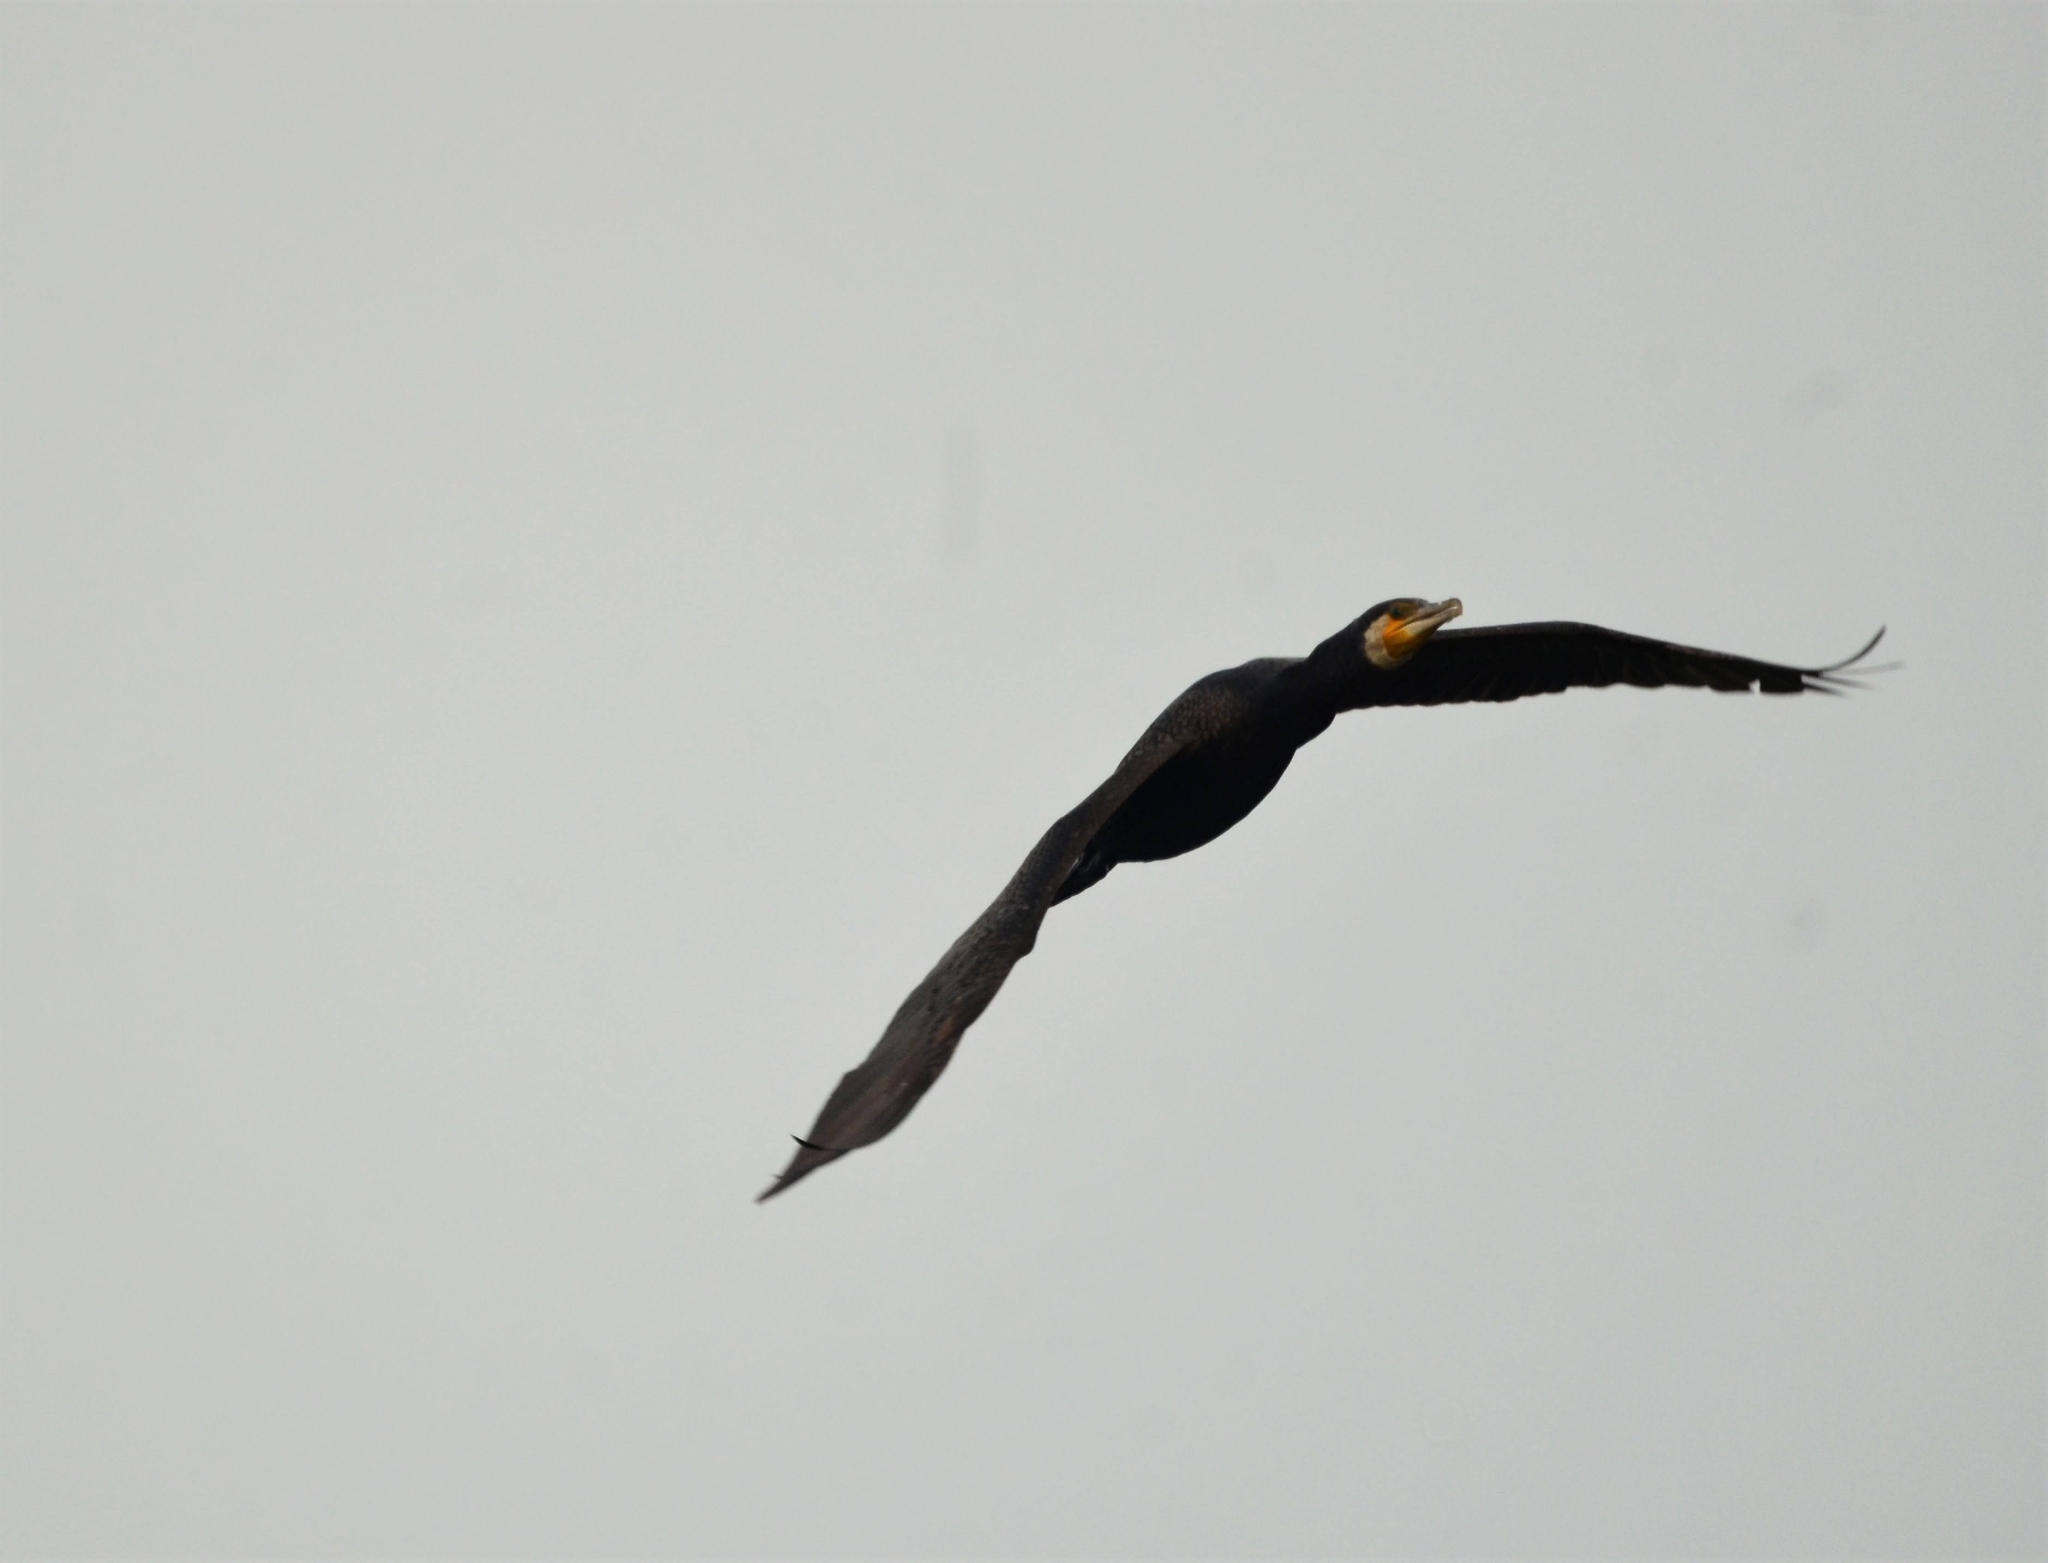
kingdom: Animalia
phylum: Chordata
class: Aves
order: Suliformes
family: Phalacrocoracidae
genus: Phalacrocorax
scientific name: Phalacrocorax carbo
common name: Great cormorant
